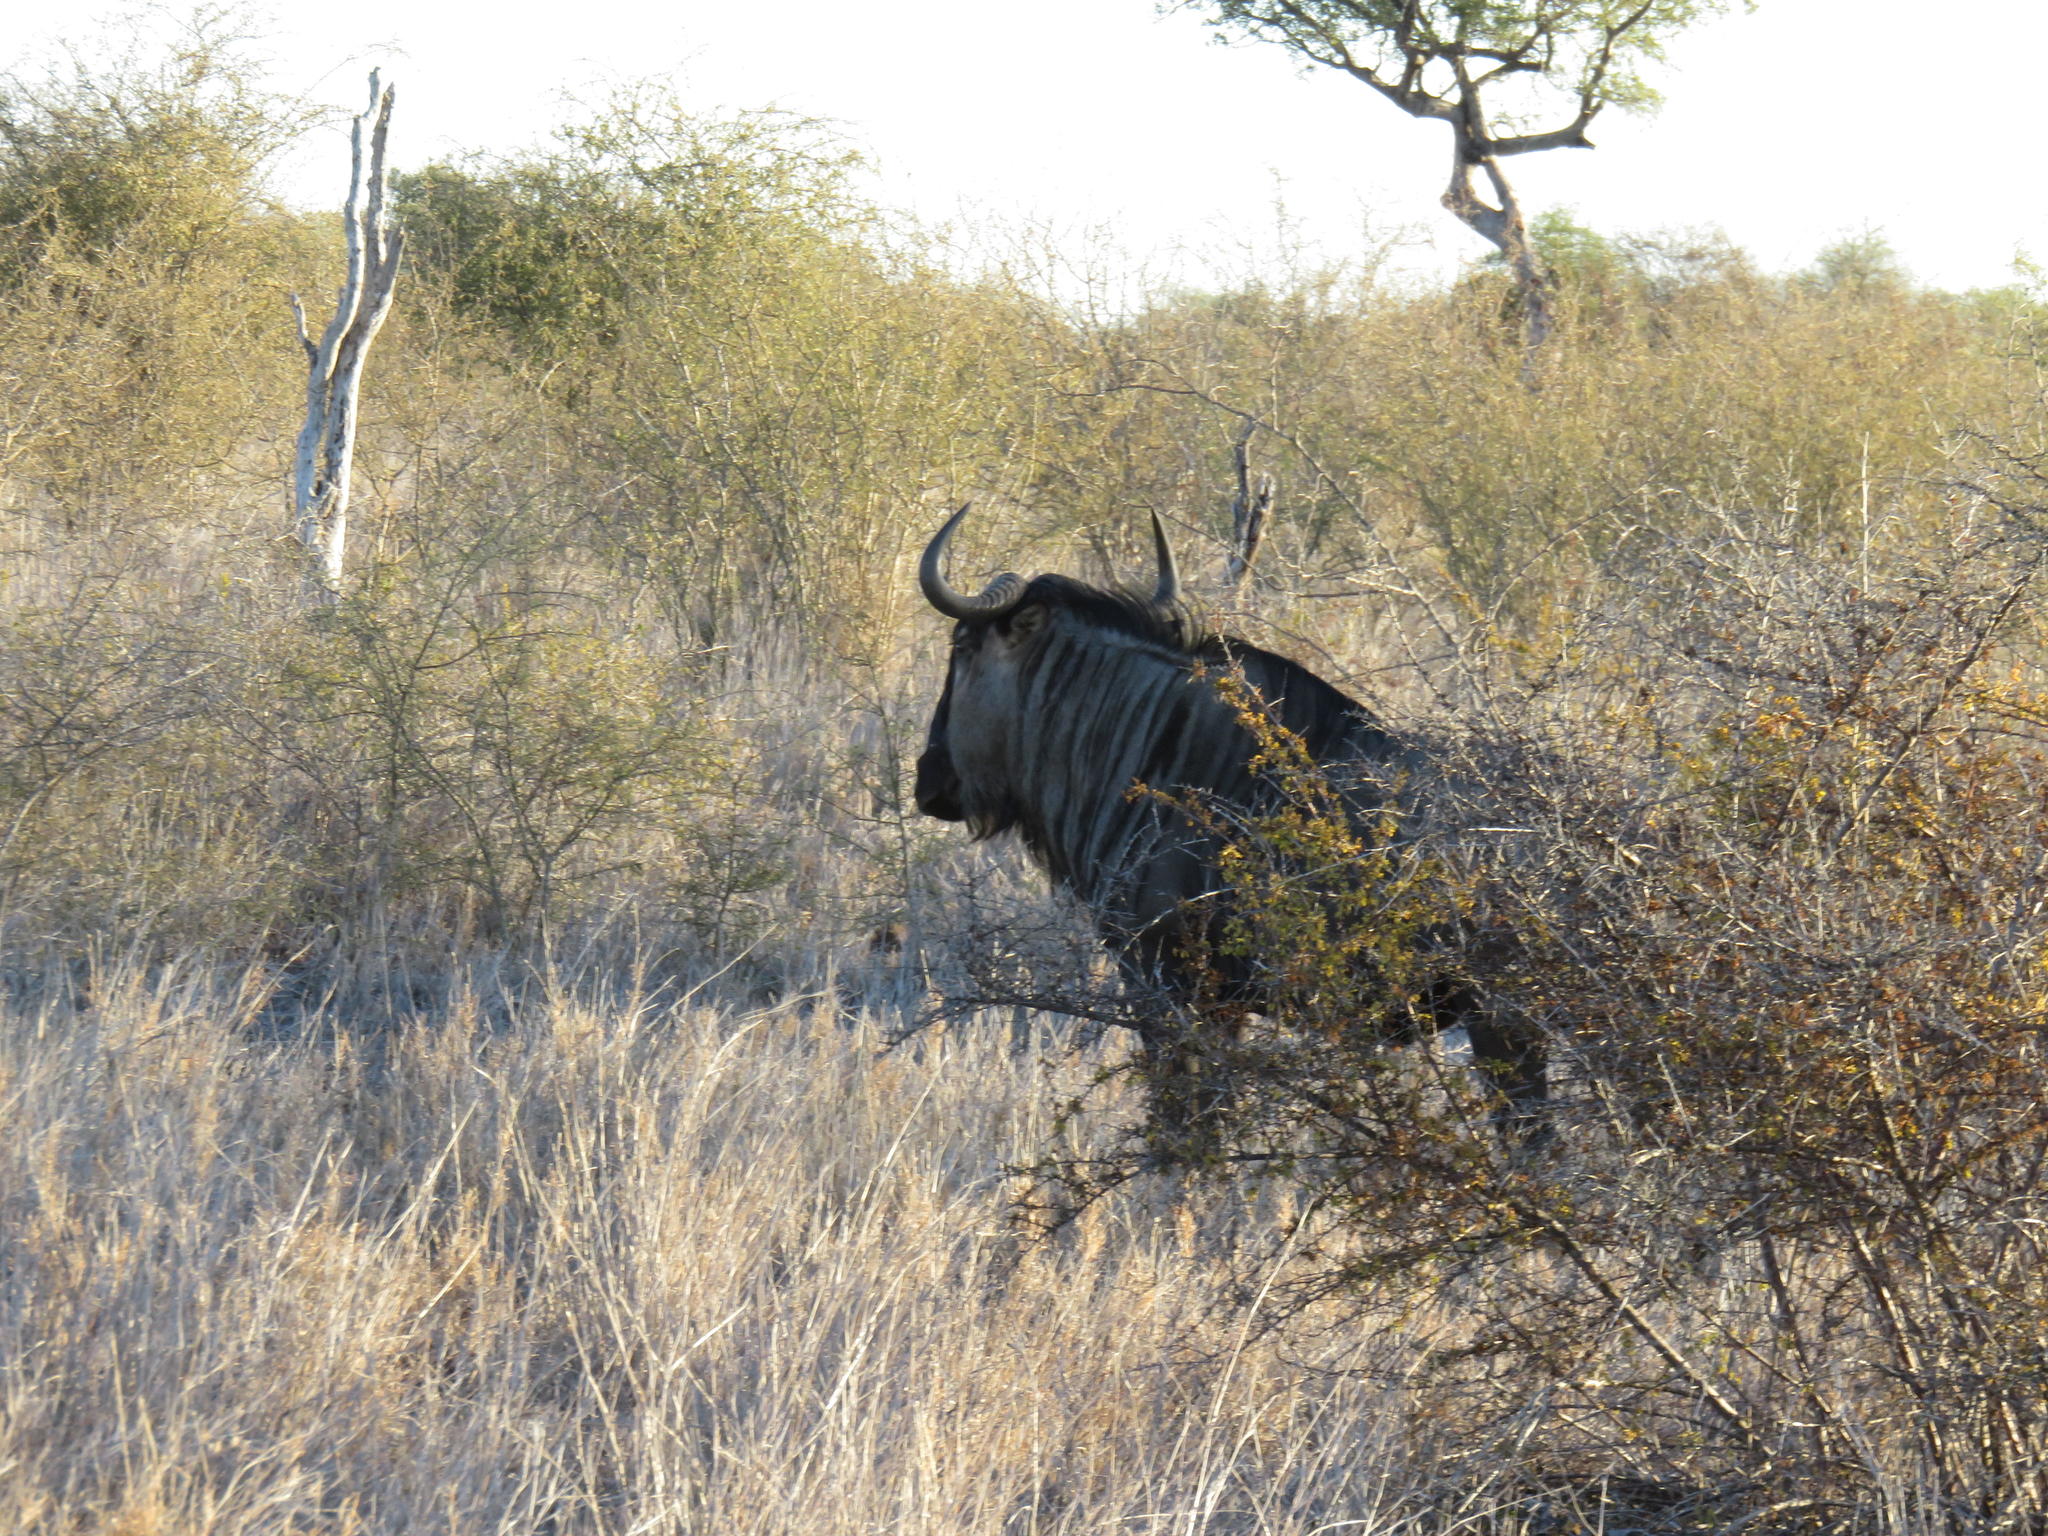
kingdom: Animalia
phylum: Chordata
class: Mammalia
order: Artiodactyla
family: Bovidae
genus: Connochaetes
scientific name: Connochaetes taurinus
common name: Blue wildebeest
